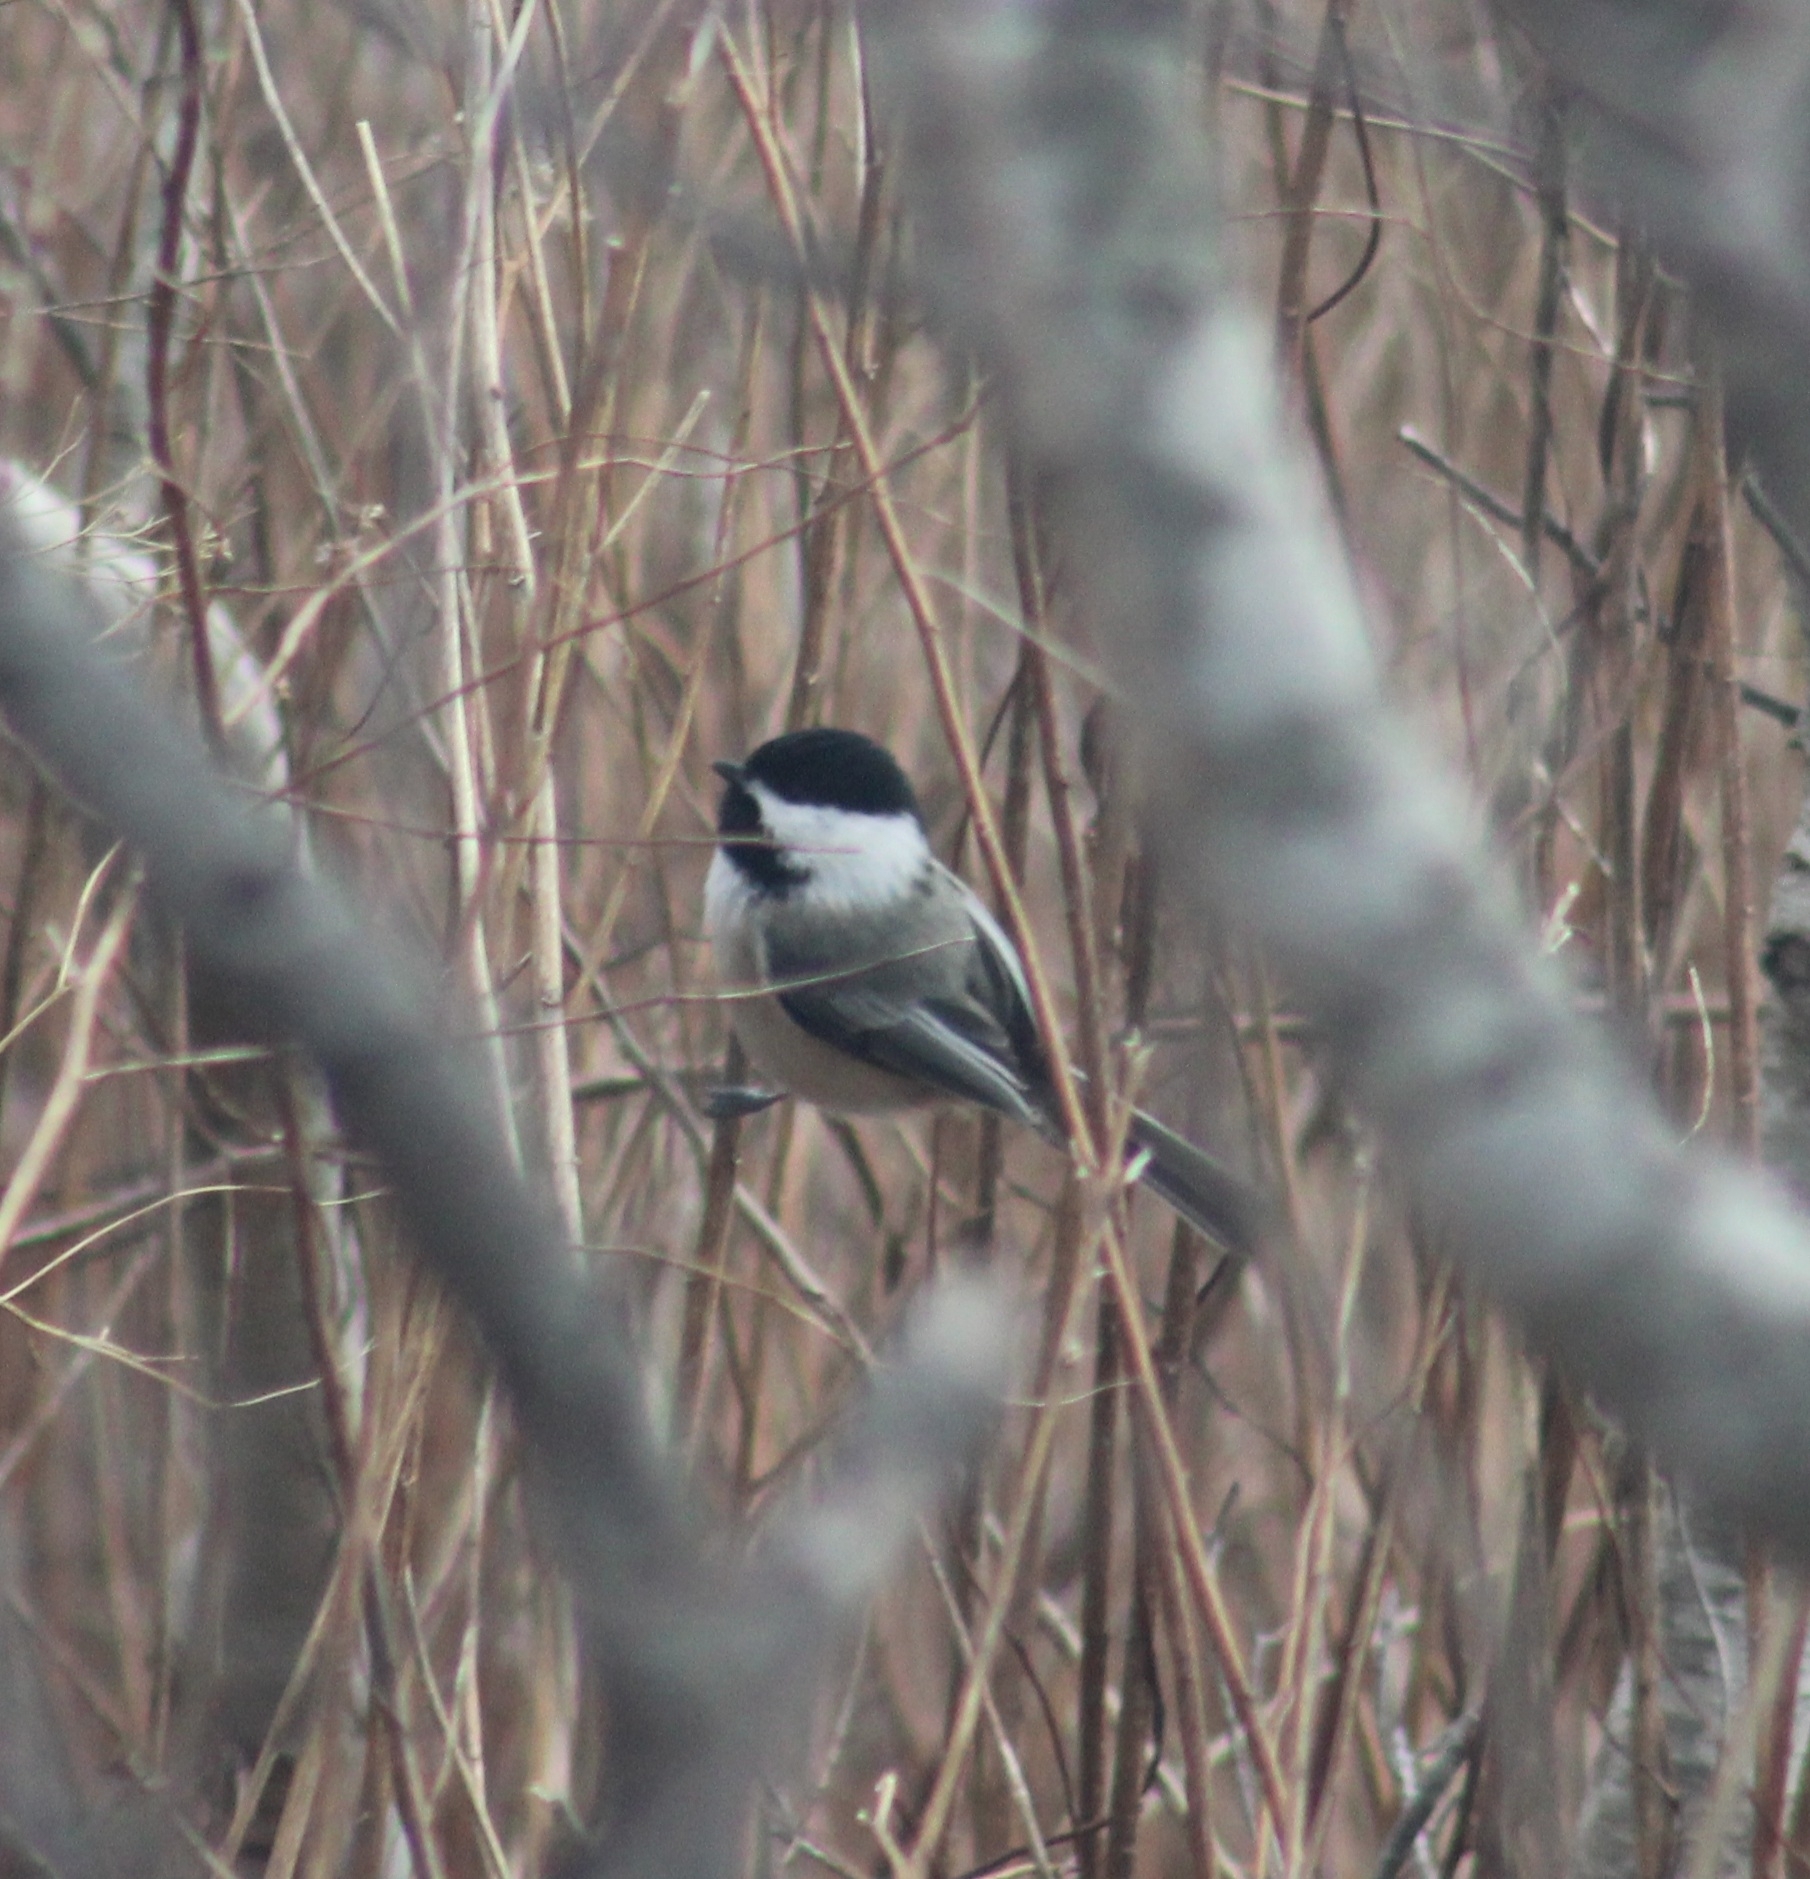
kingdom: Animalia
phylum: Chordata
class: Aves
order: Passeriformes
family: Paridae
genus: Poecile
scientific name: Poecile atricapillus
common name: Black-capped chickadee
